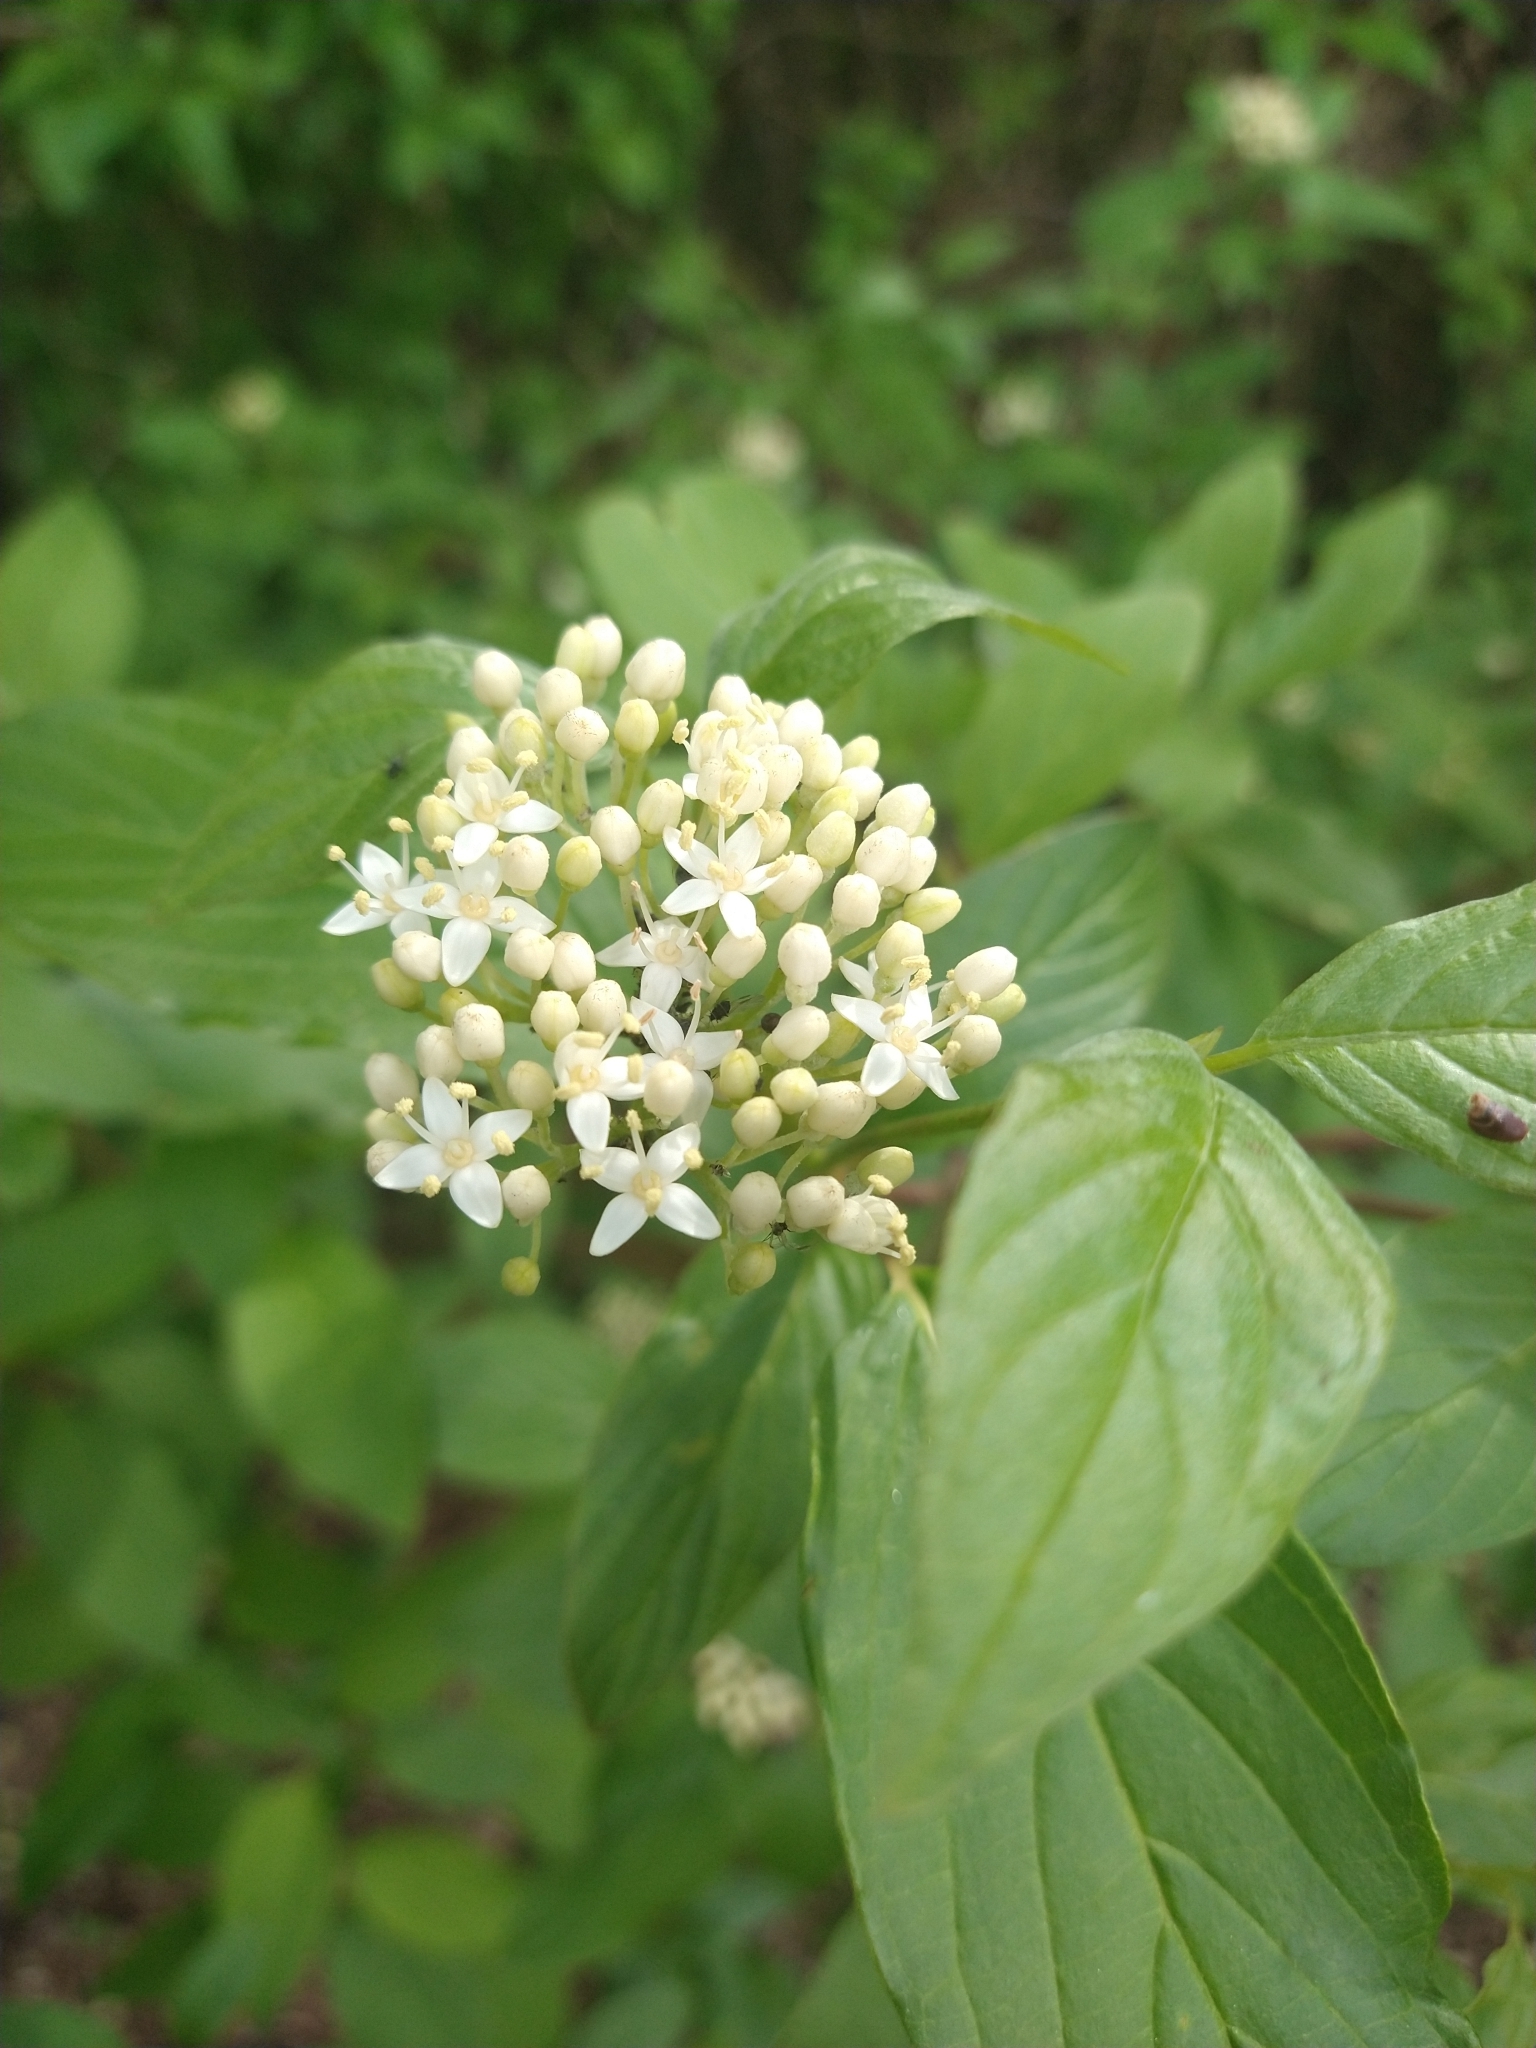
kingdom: Plantae
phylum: Tracheophyta
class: Magnoliopsida
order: Cornales
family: Cornaceae
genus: Cornus
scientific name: Cornus sericea
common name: Red-osier dogwood
